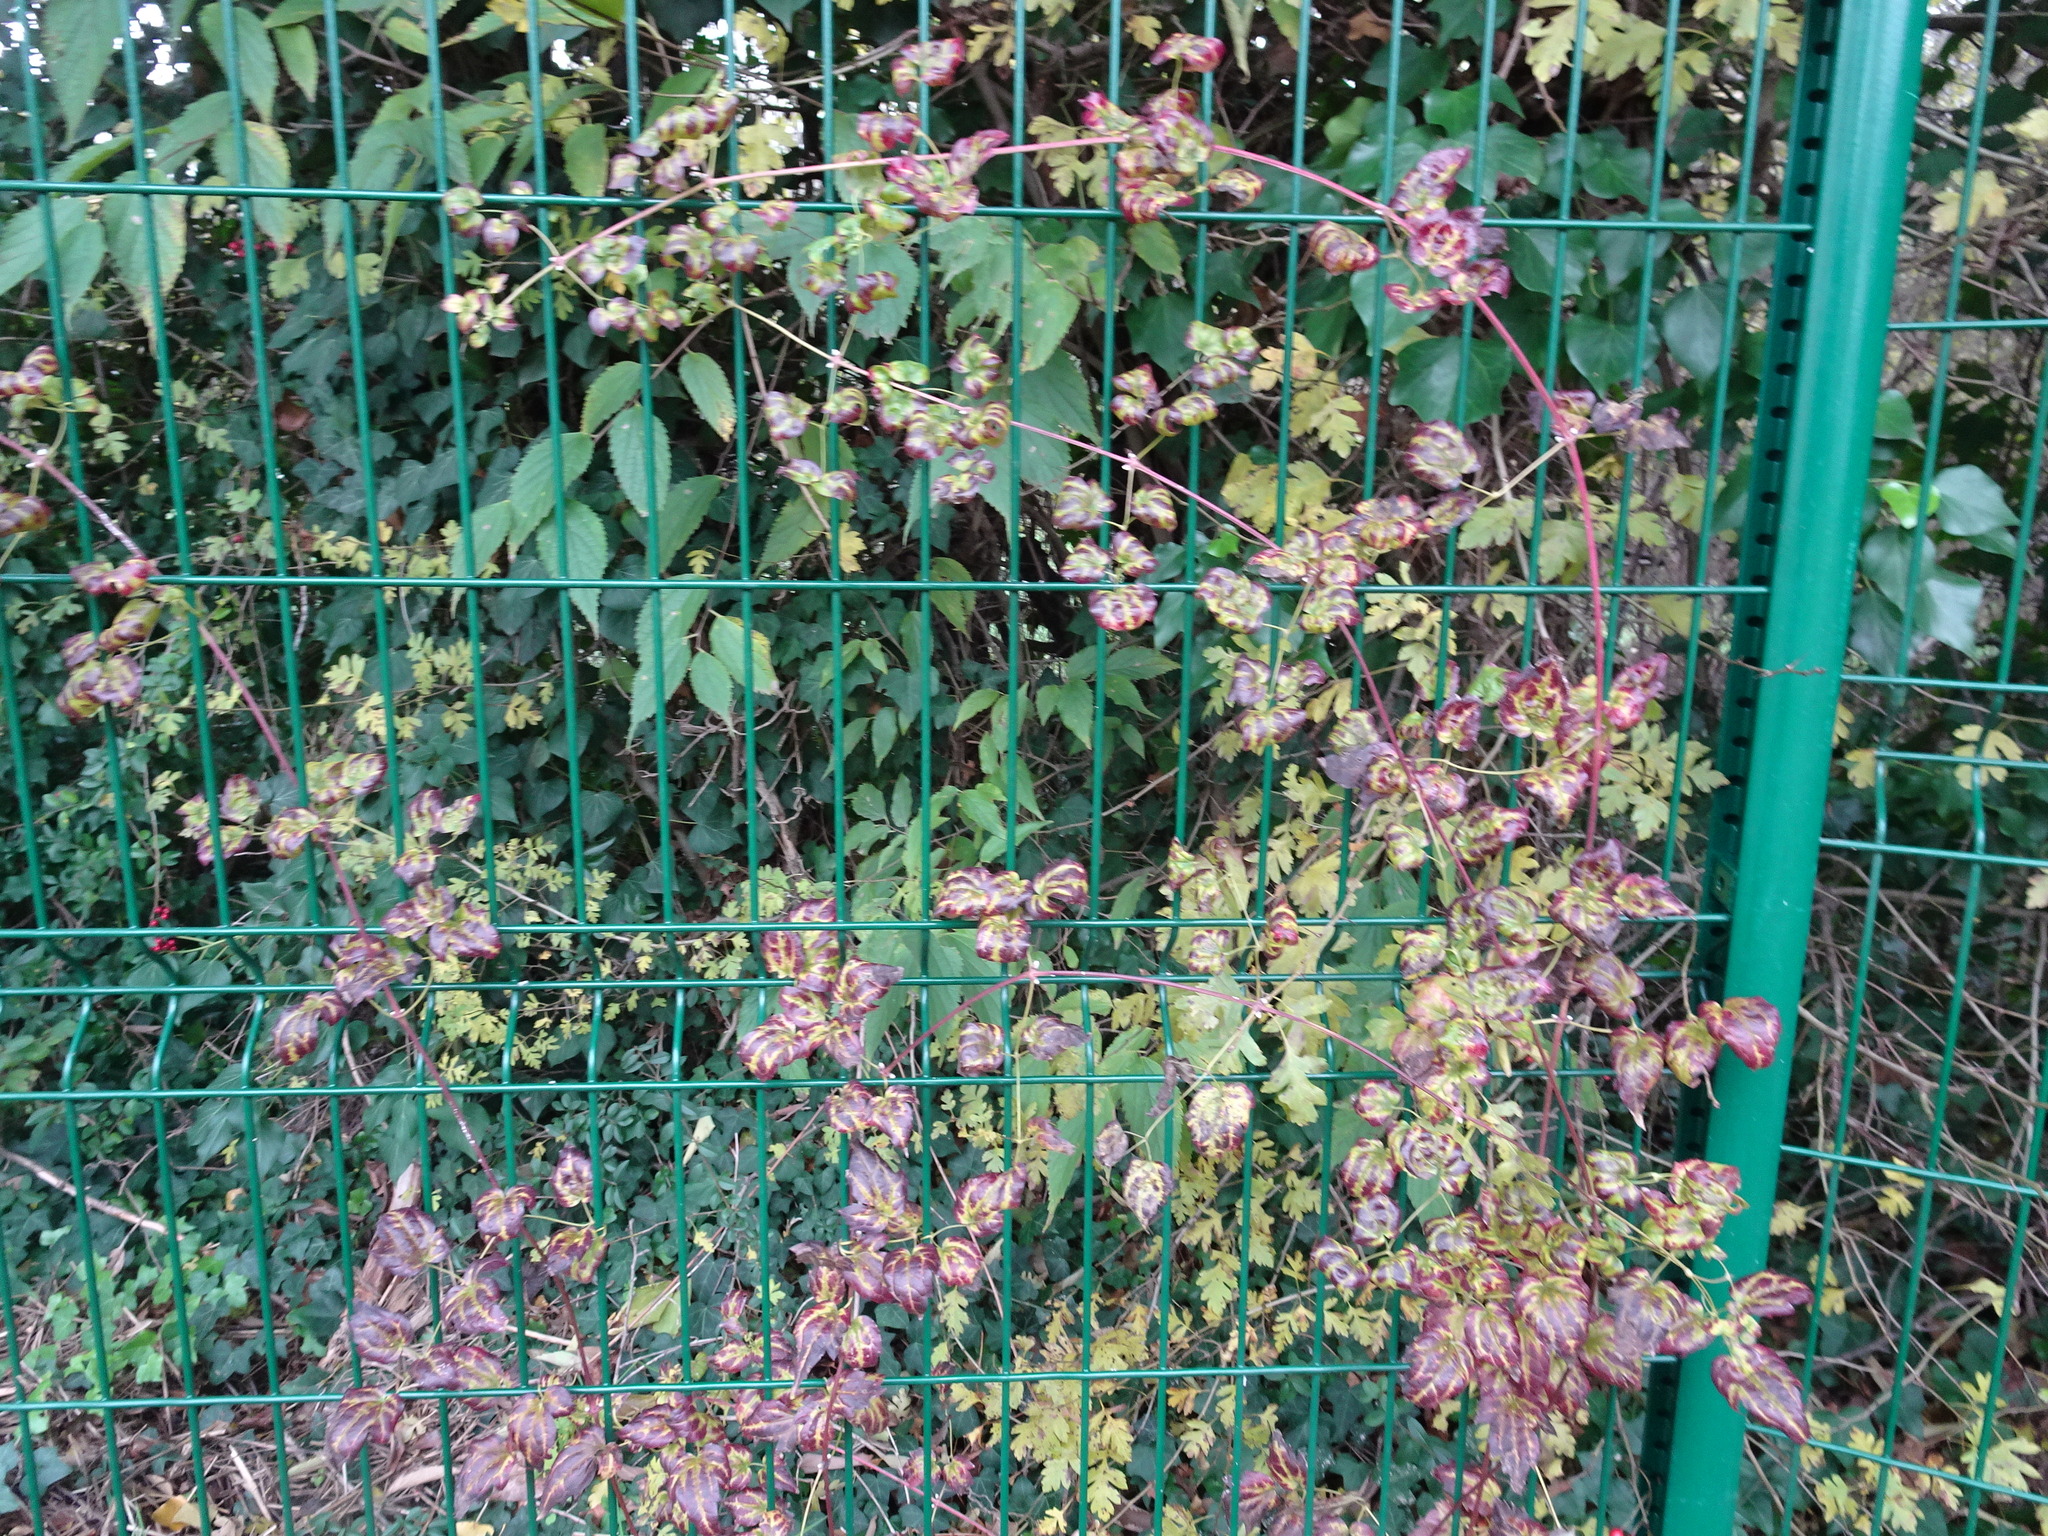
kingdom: Plantae
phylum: Tracheophyta
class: Magnoliopsida
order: Ranunculales
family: Ranunculaceae
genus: Clematis
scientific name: Clematis vitalba
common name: Evergreen clematis
